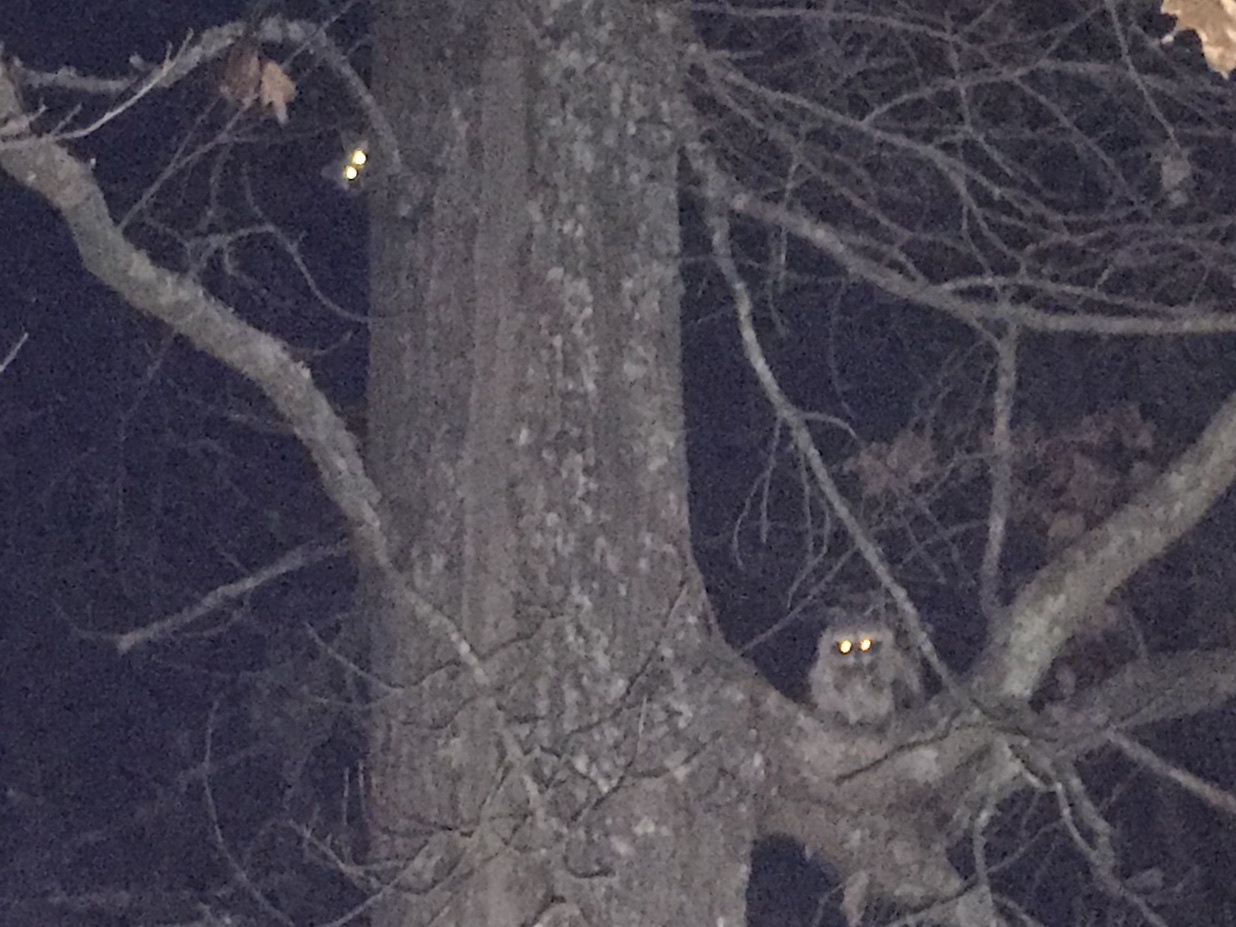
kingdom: Animalia
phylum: Chordata
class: Mammalia
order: Carnivora
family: Procyonidae
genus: Procyon
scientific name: Procyon lotor
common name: Raccoon
